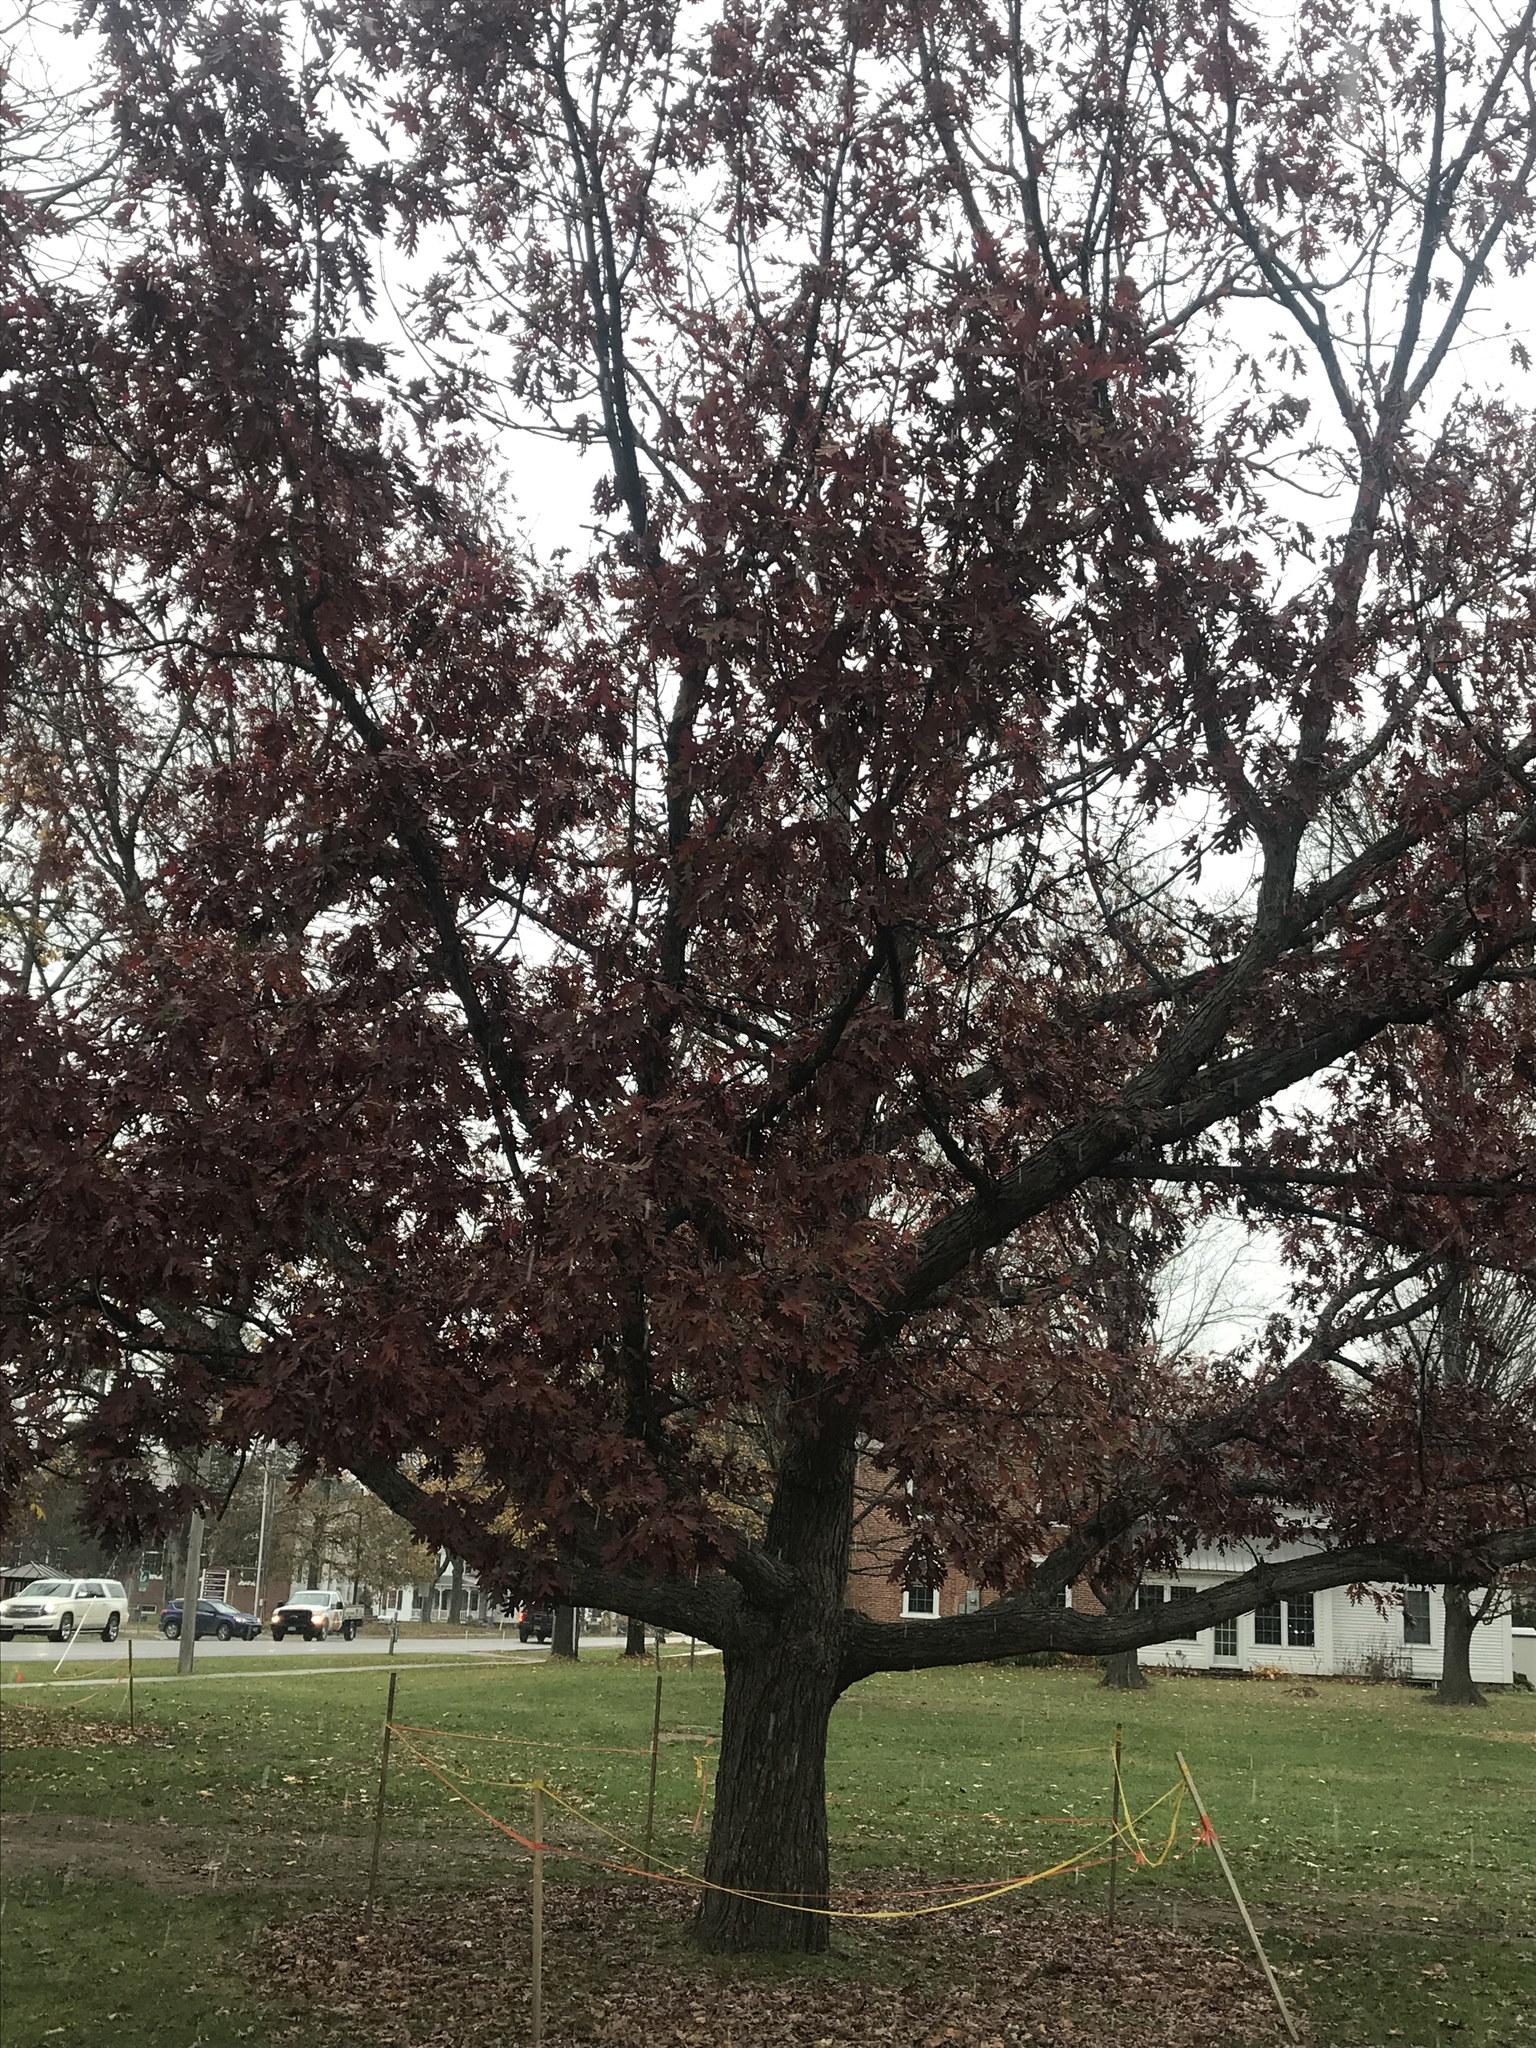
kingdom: Plantae
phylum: Tracheophyta
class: Magnoliopsida
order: Fagales
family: Fagaceae
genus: Quercus
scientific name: Quercus alba
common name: White oak
